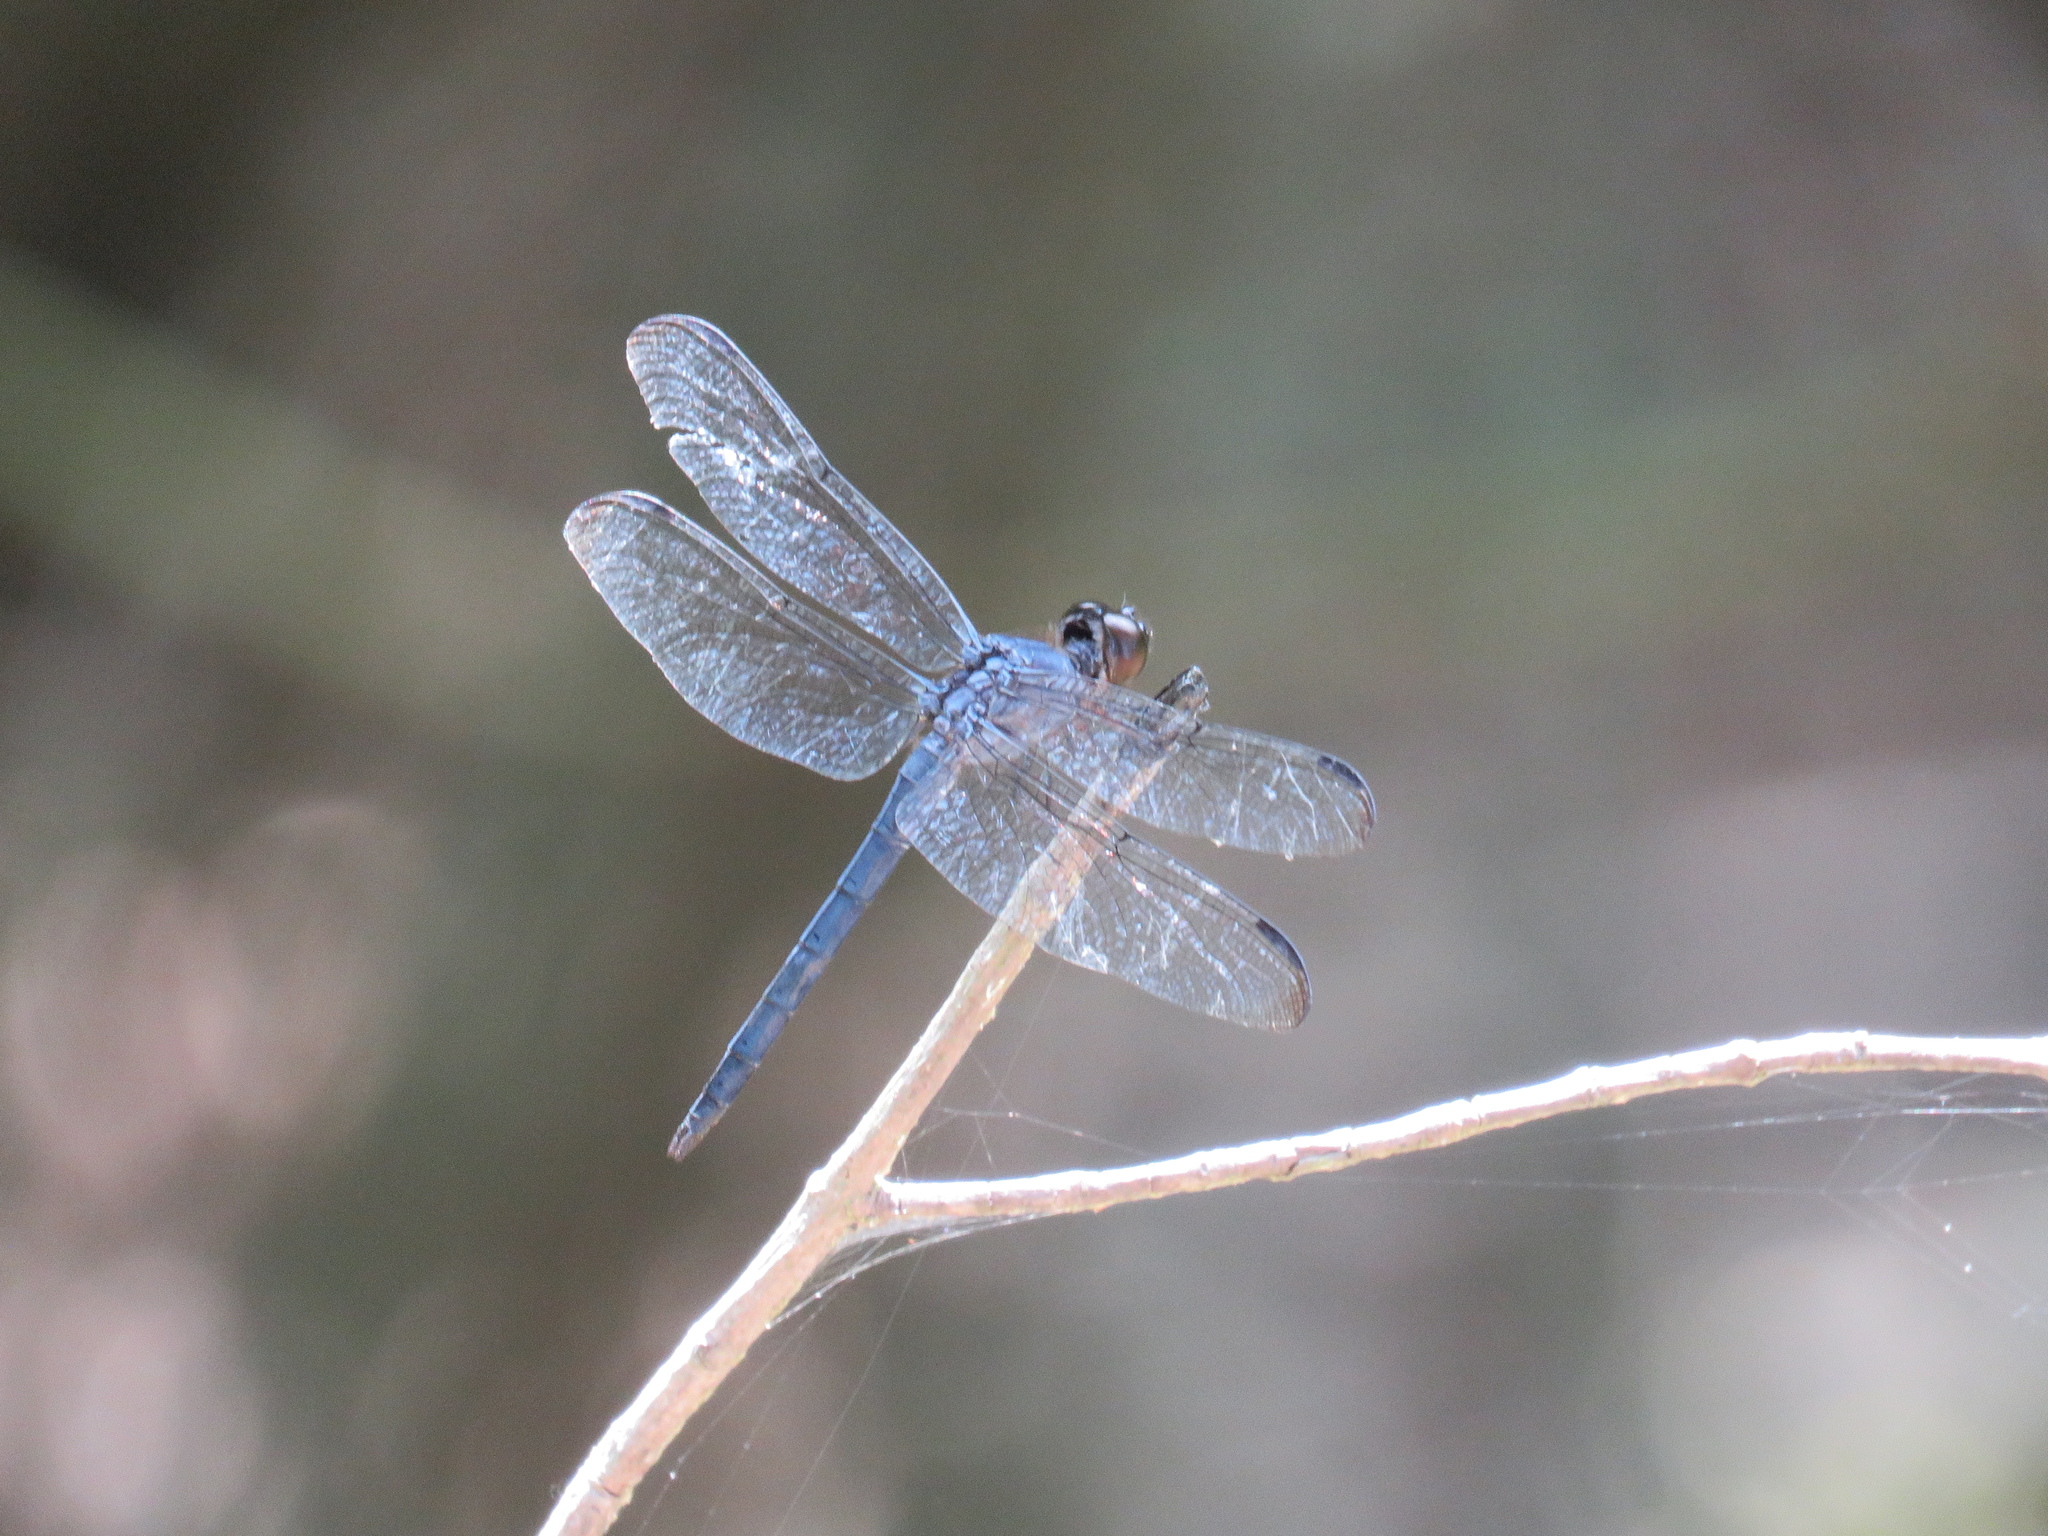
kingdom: Animalia
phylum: Arthropoda
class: Insecta
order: Odonata
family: Libellulidae
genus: Libellula
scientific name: Libellula incesta
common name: Slaty skimmer
